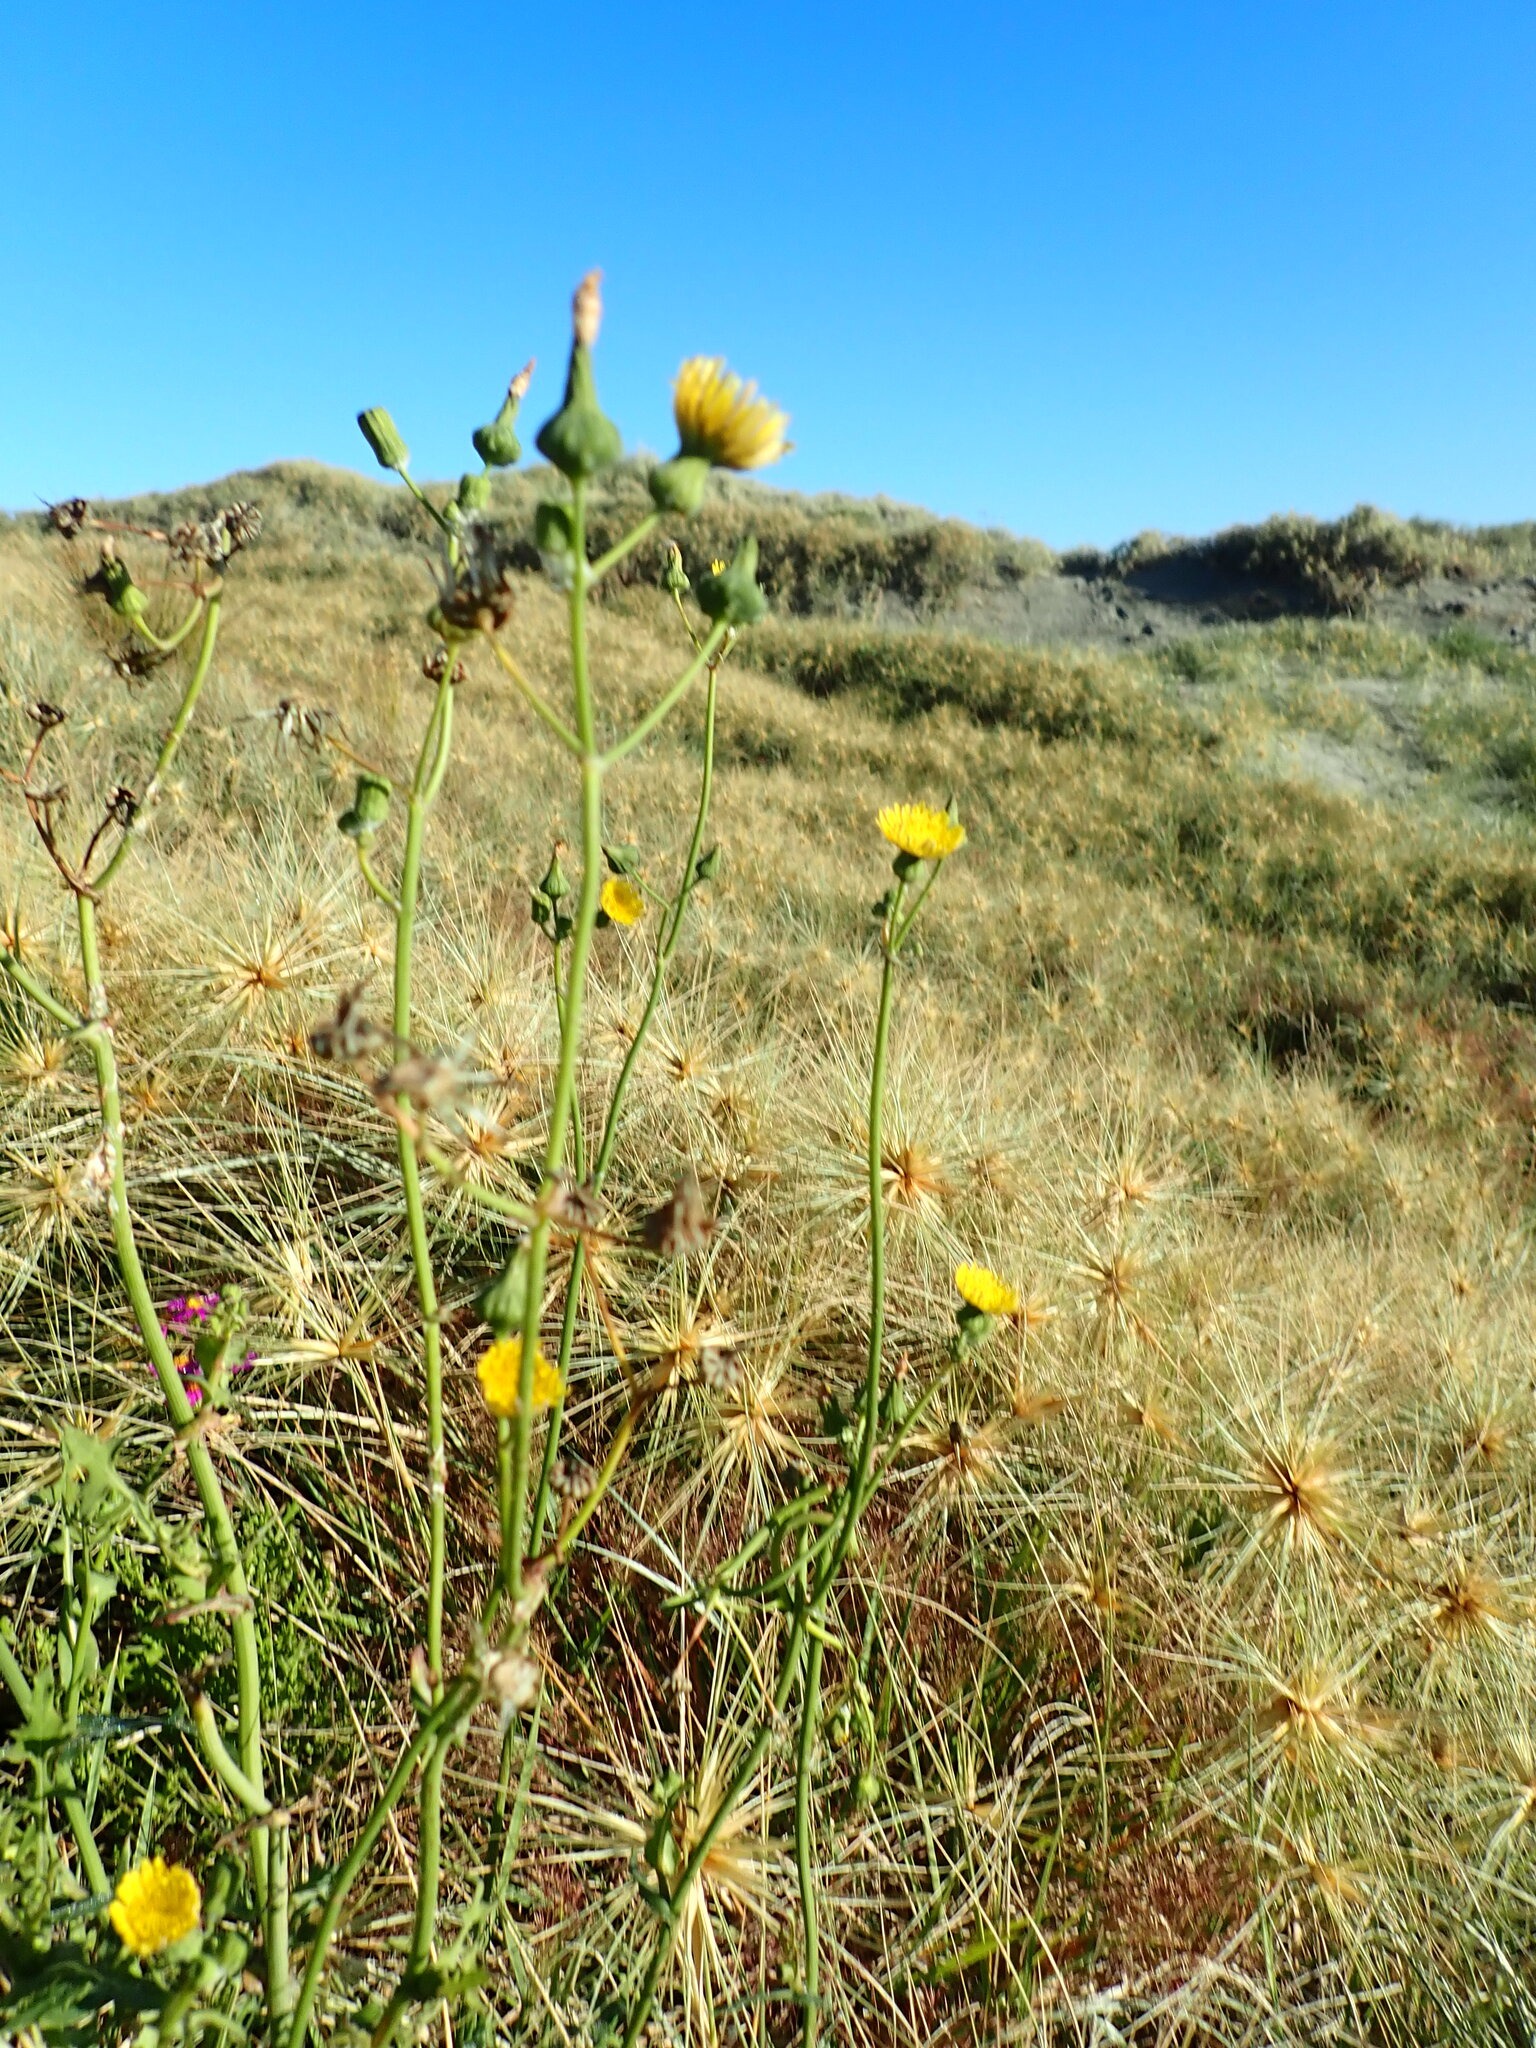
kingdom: Plantae
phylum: Tracheophyta
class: Magnoliopsida
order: Asterales
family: Asteraceae
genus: Sonchus
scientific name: Sonchus oleraceus
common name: Common sowthistle
